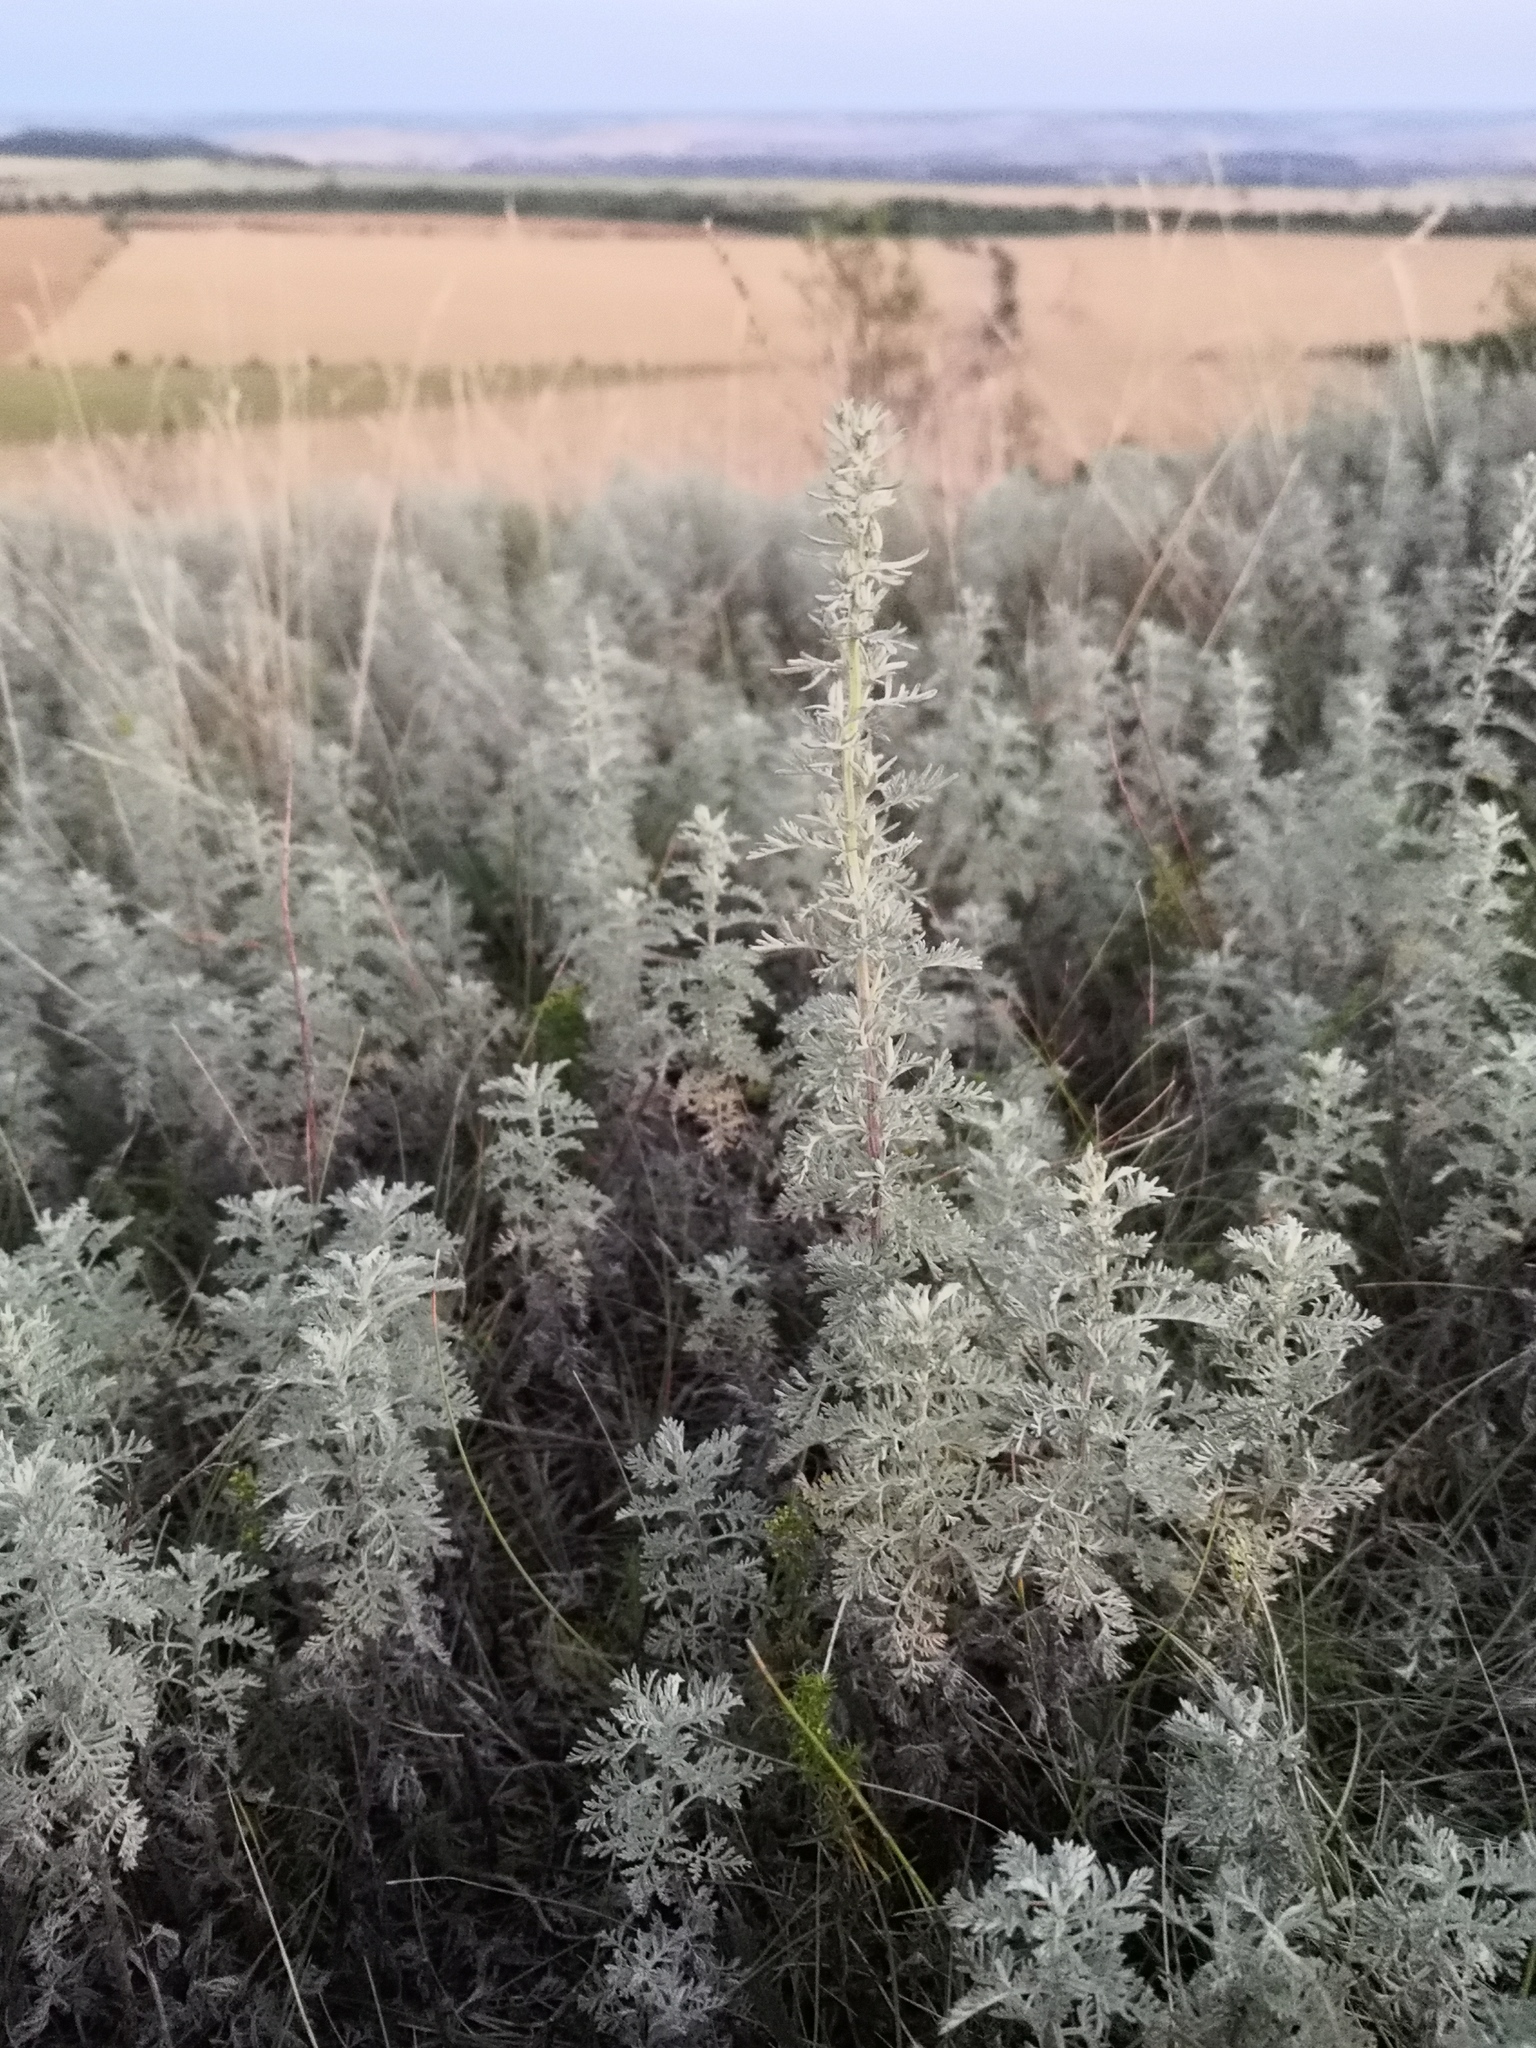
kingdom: Plantae
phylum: Tracheophyta
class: Magnoliopsida
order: Asterales
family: Asteraceae
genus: Artemisia
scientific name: Artemisia pontica
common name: Roman wormwood
